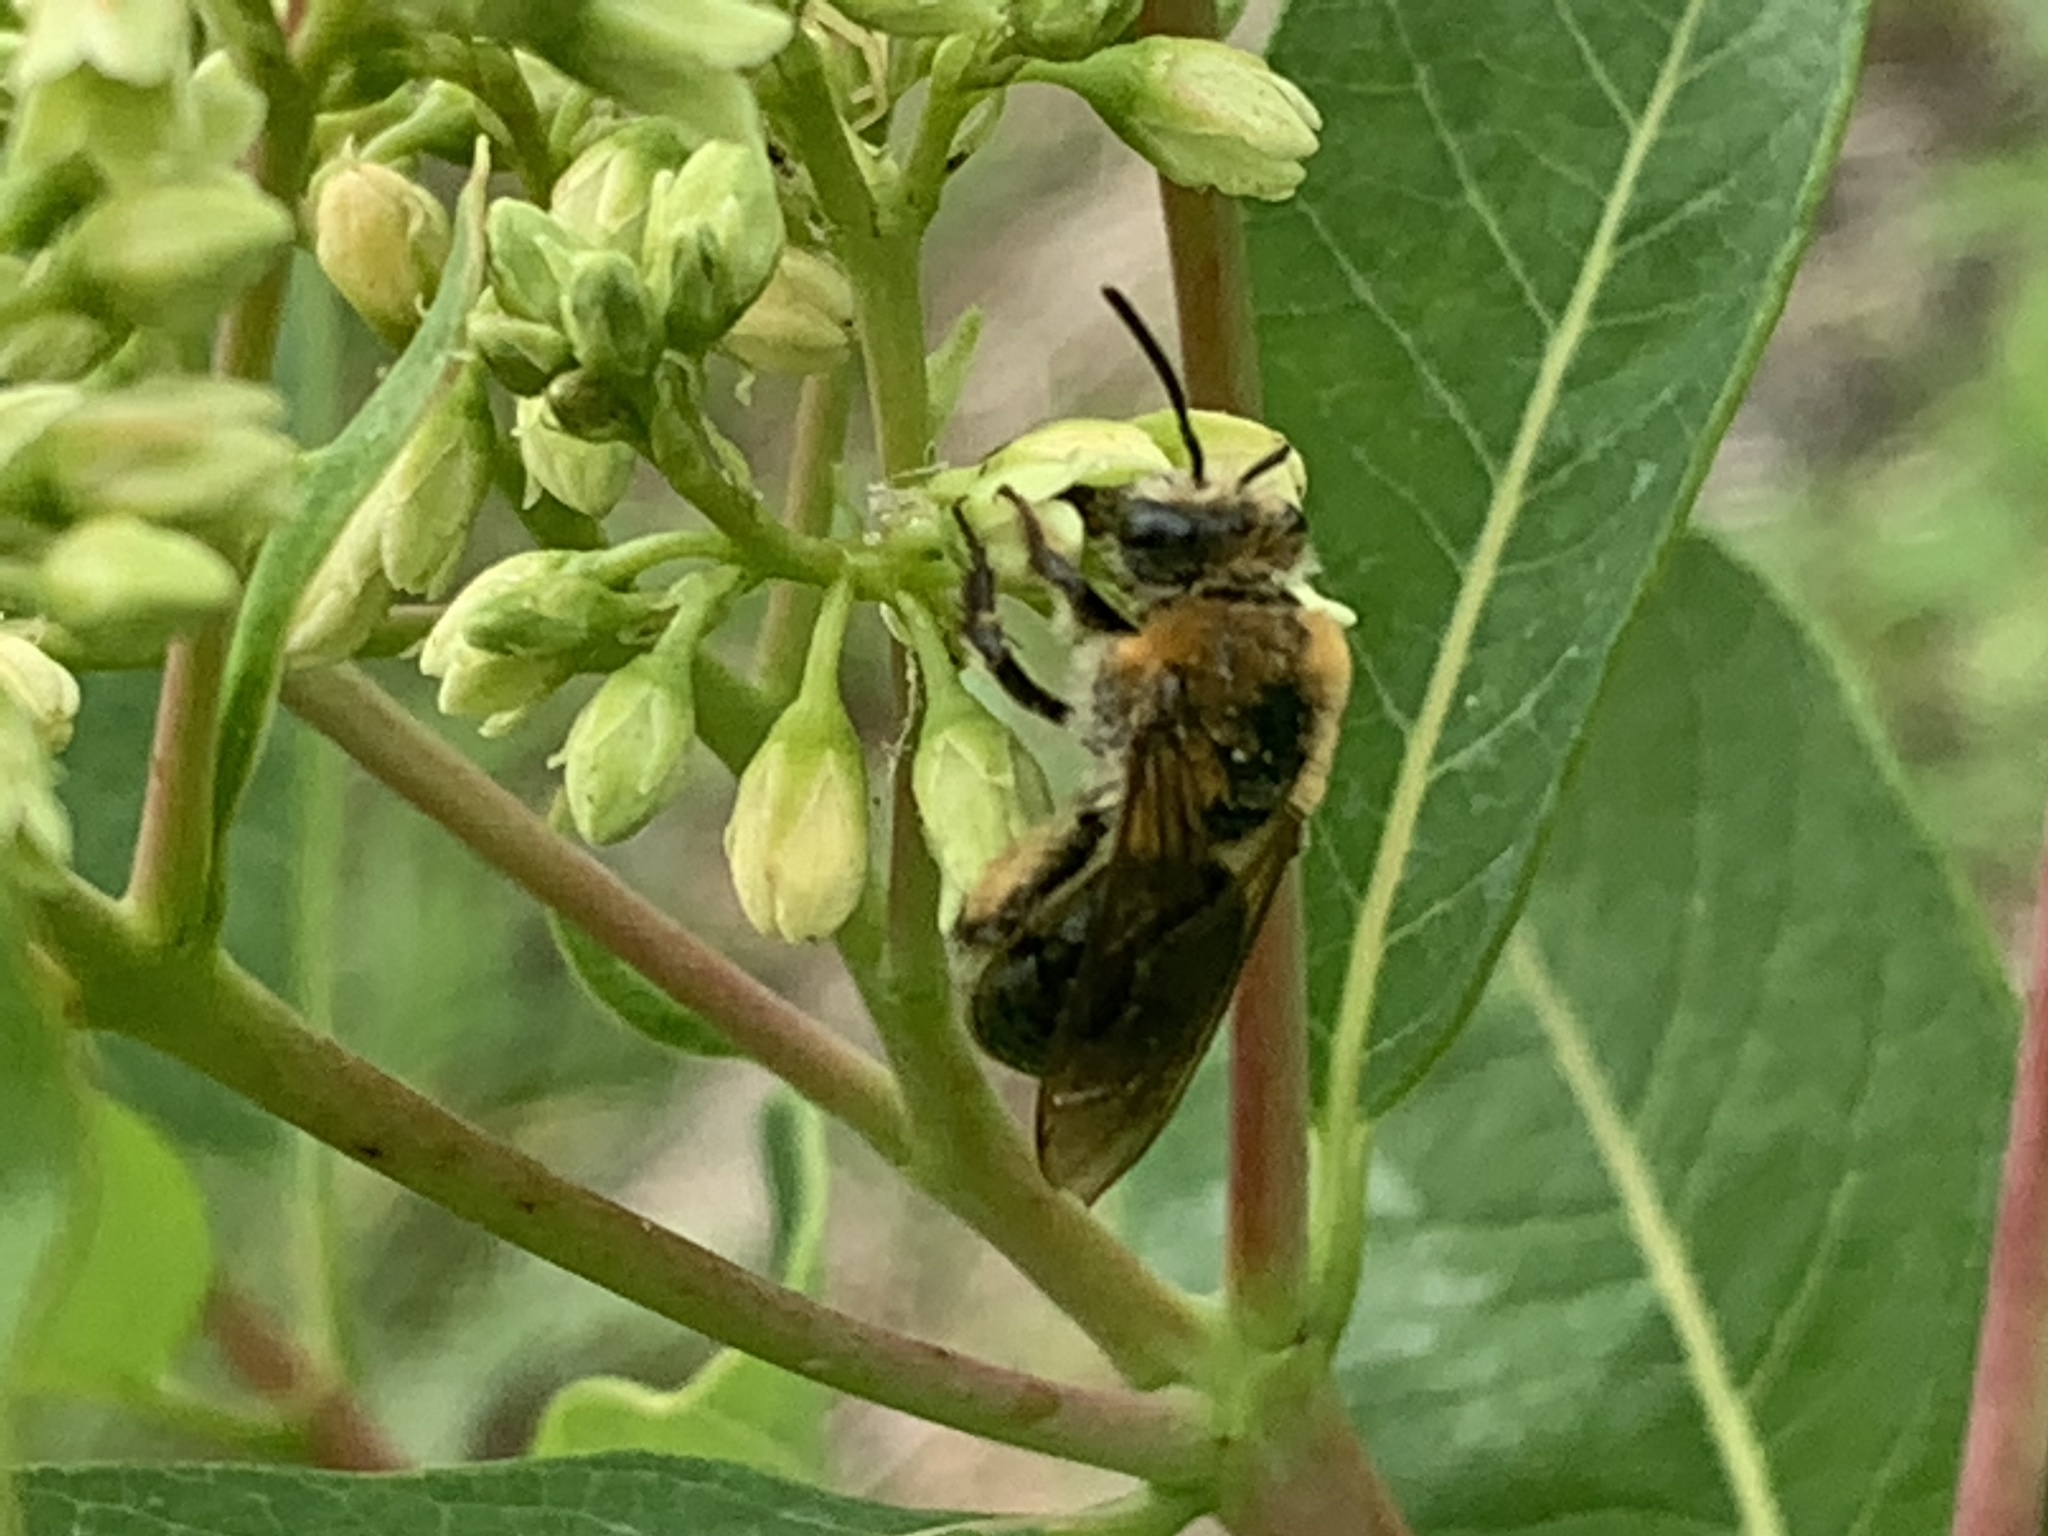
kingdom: Animalia
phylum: Arthropoda
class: Insecta
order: Hymenoptera
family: Colletidae
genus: Colletes
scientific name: Colletes thoracicus
